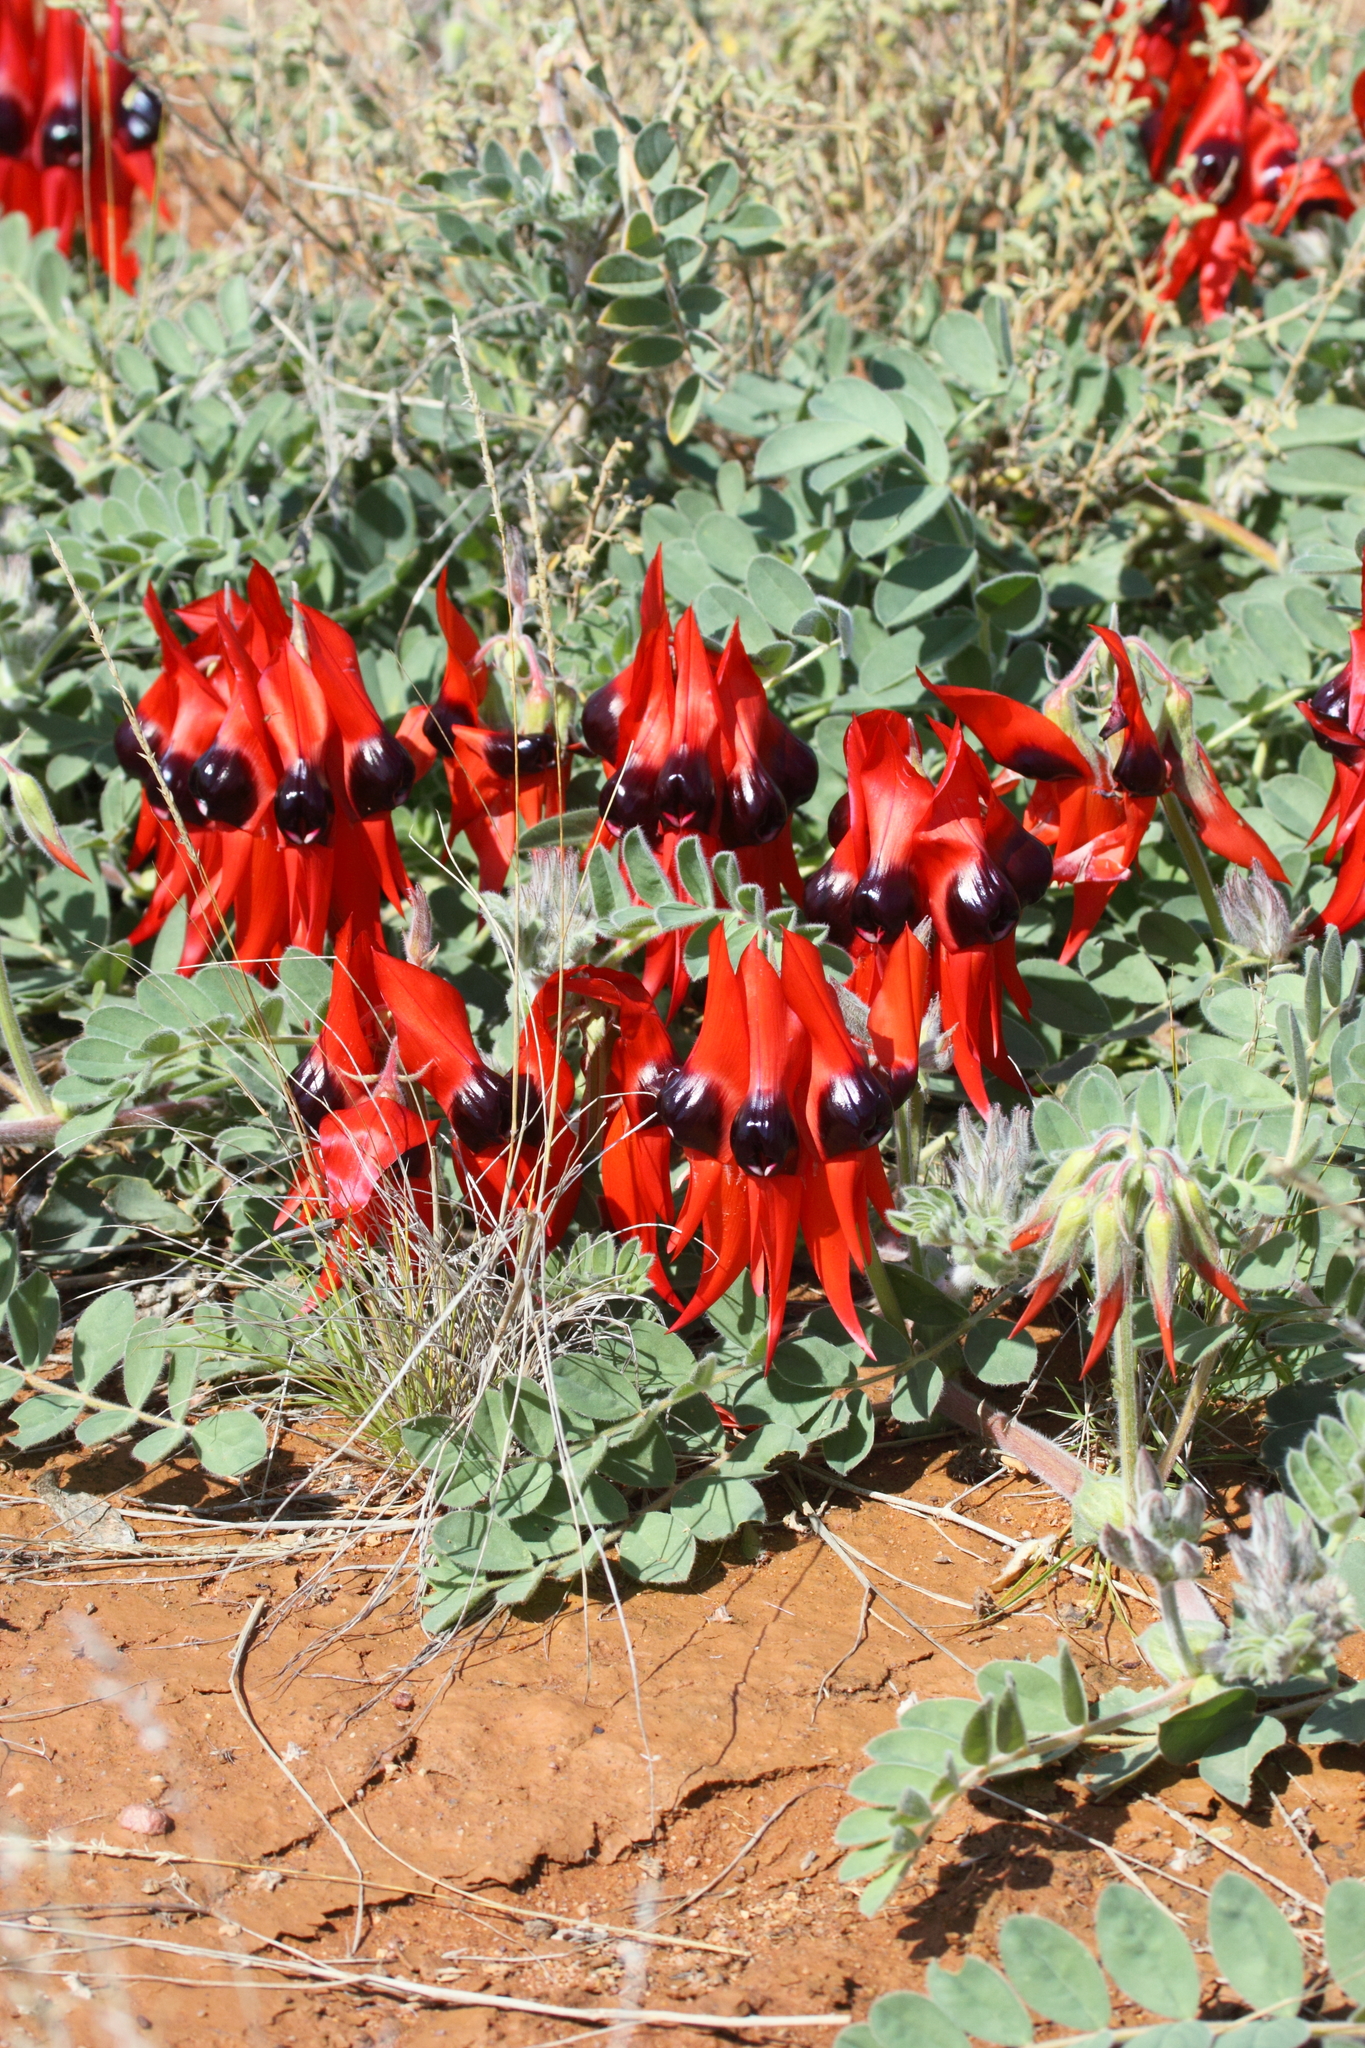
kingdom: Plantae
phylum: Tracheophyta
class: Magnoliopsida
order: Fabales
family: Fabaceae
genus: Swainsona
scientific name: Swainsona formosa
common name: Sturt's desert-pea
